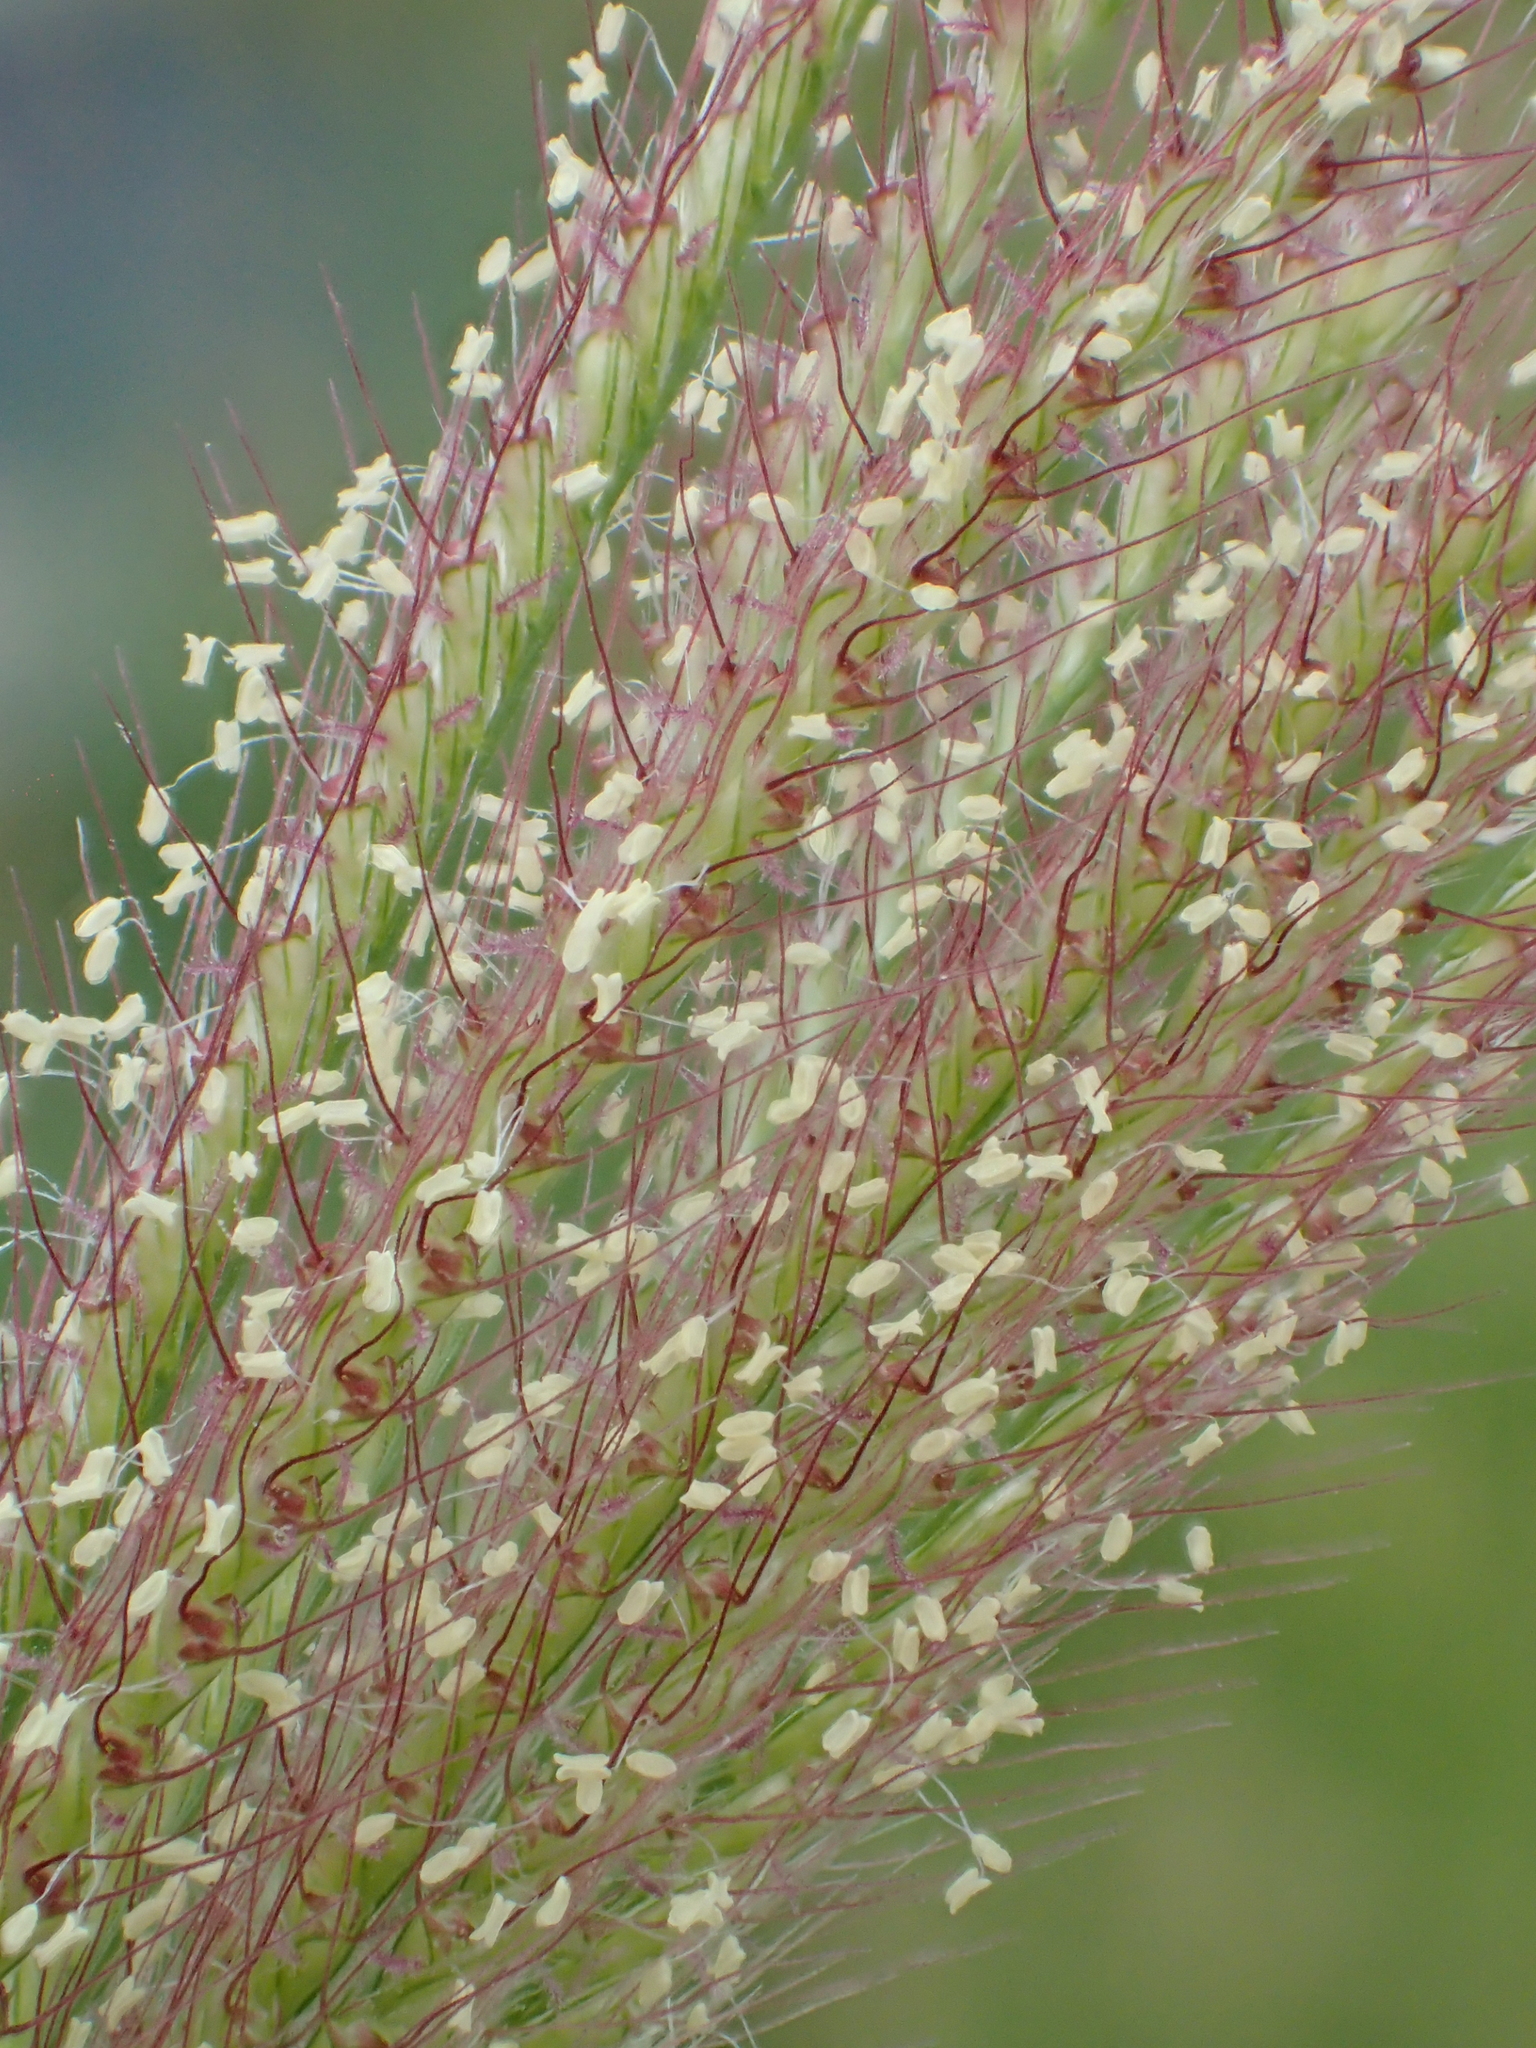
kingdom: Plantae
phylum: Tracheophyta
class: Liliopsida
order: Poales
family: Poaceae
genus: Chloris
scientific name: Chloris barbata
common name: Swollen fingergrass
